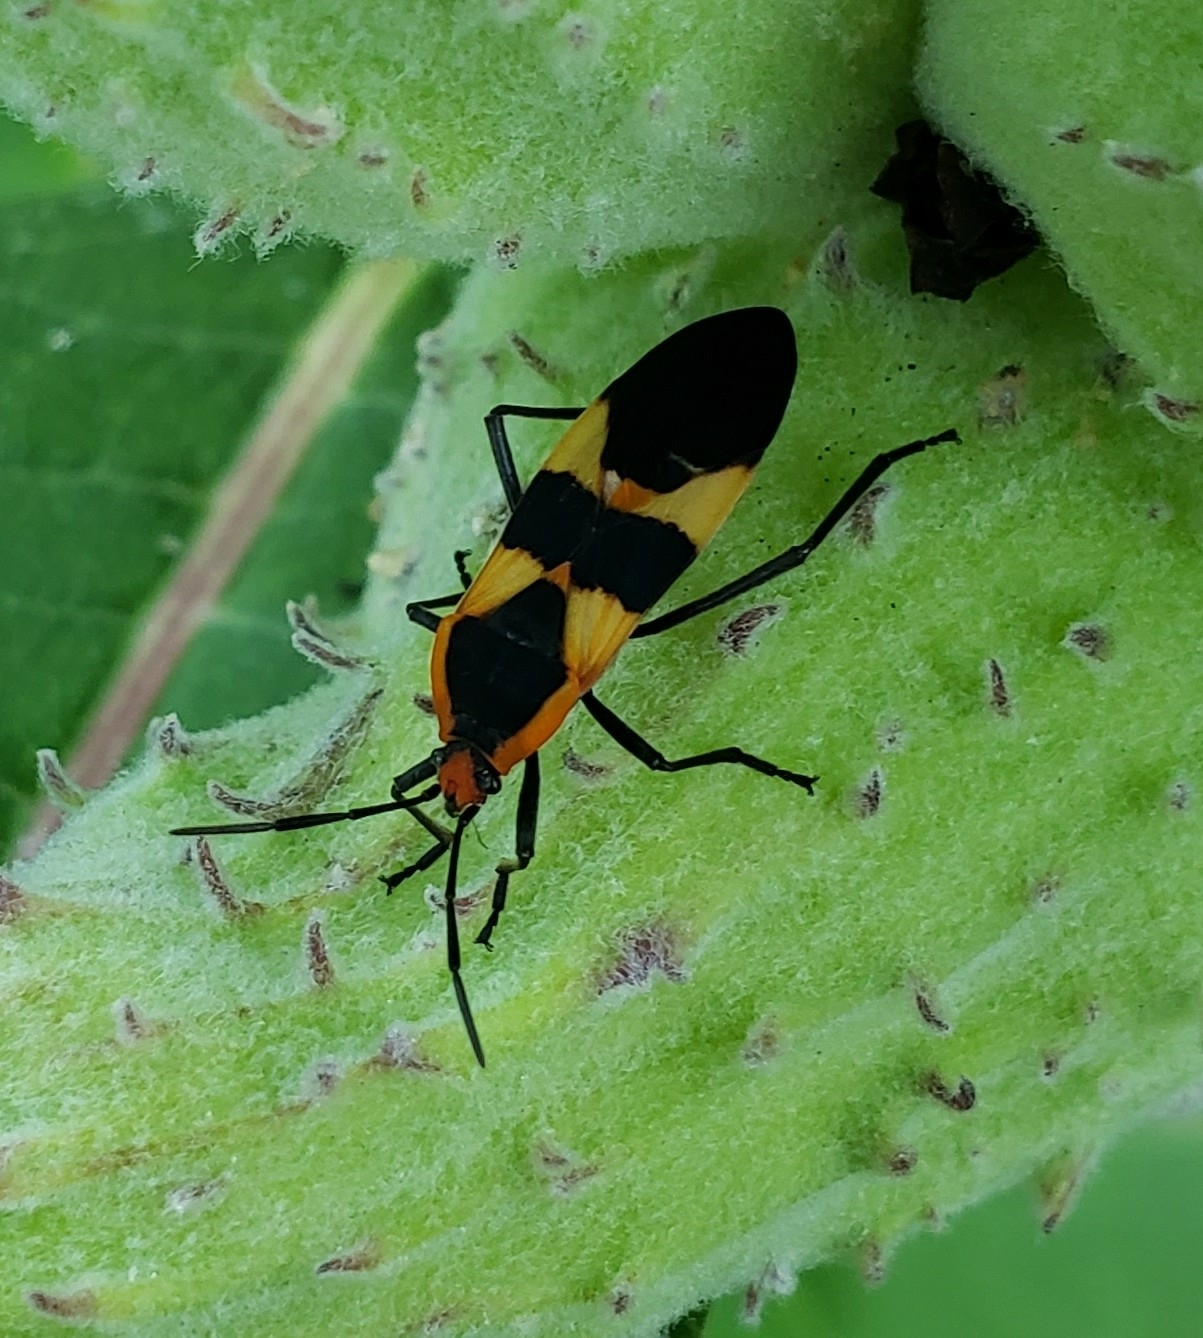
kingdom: Animalia
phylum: Arthropoda
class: Insecta
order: Hemiptera
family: Lygaeidae
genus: Oncopeltus
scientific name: Oncopeltus fasciatus
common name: Large milkweed bug
